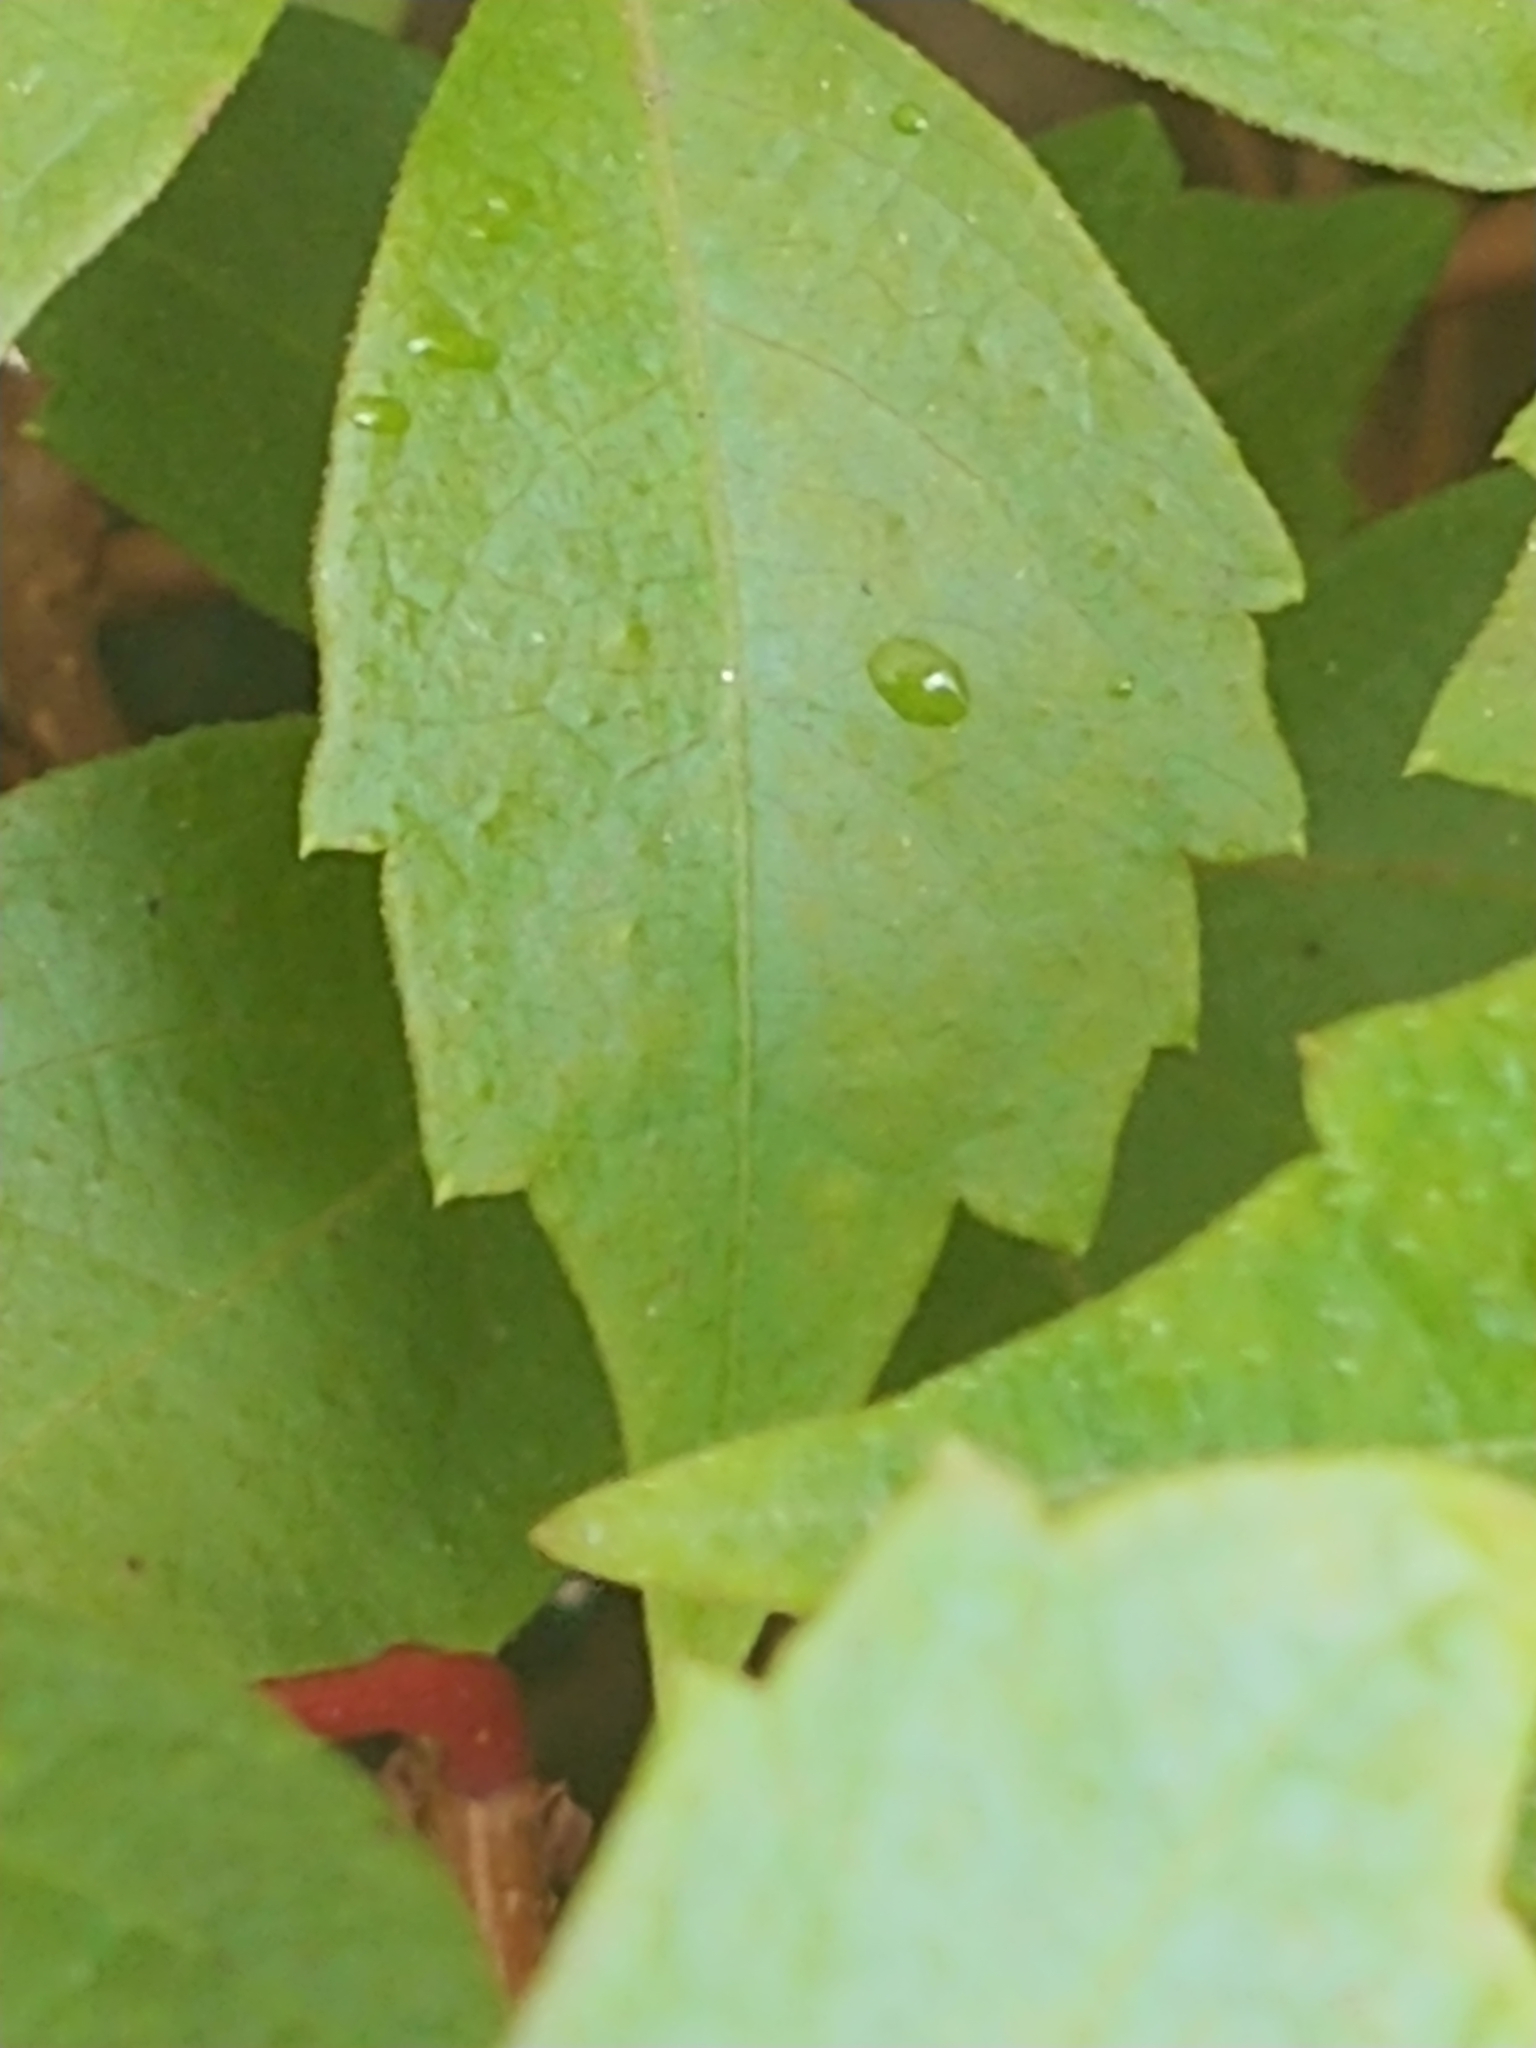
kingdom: Plantae
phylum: Tracheophyta
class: Magnoliopsida
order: Vitales
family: Vitaceae
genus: Parthenocissus
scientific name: Parthenocissus quinquefolia
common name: Virginia-creeper
